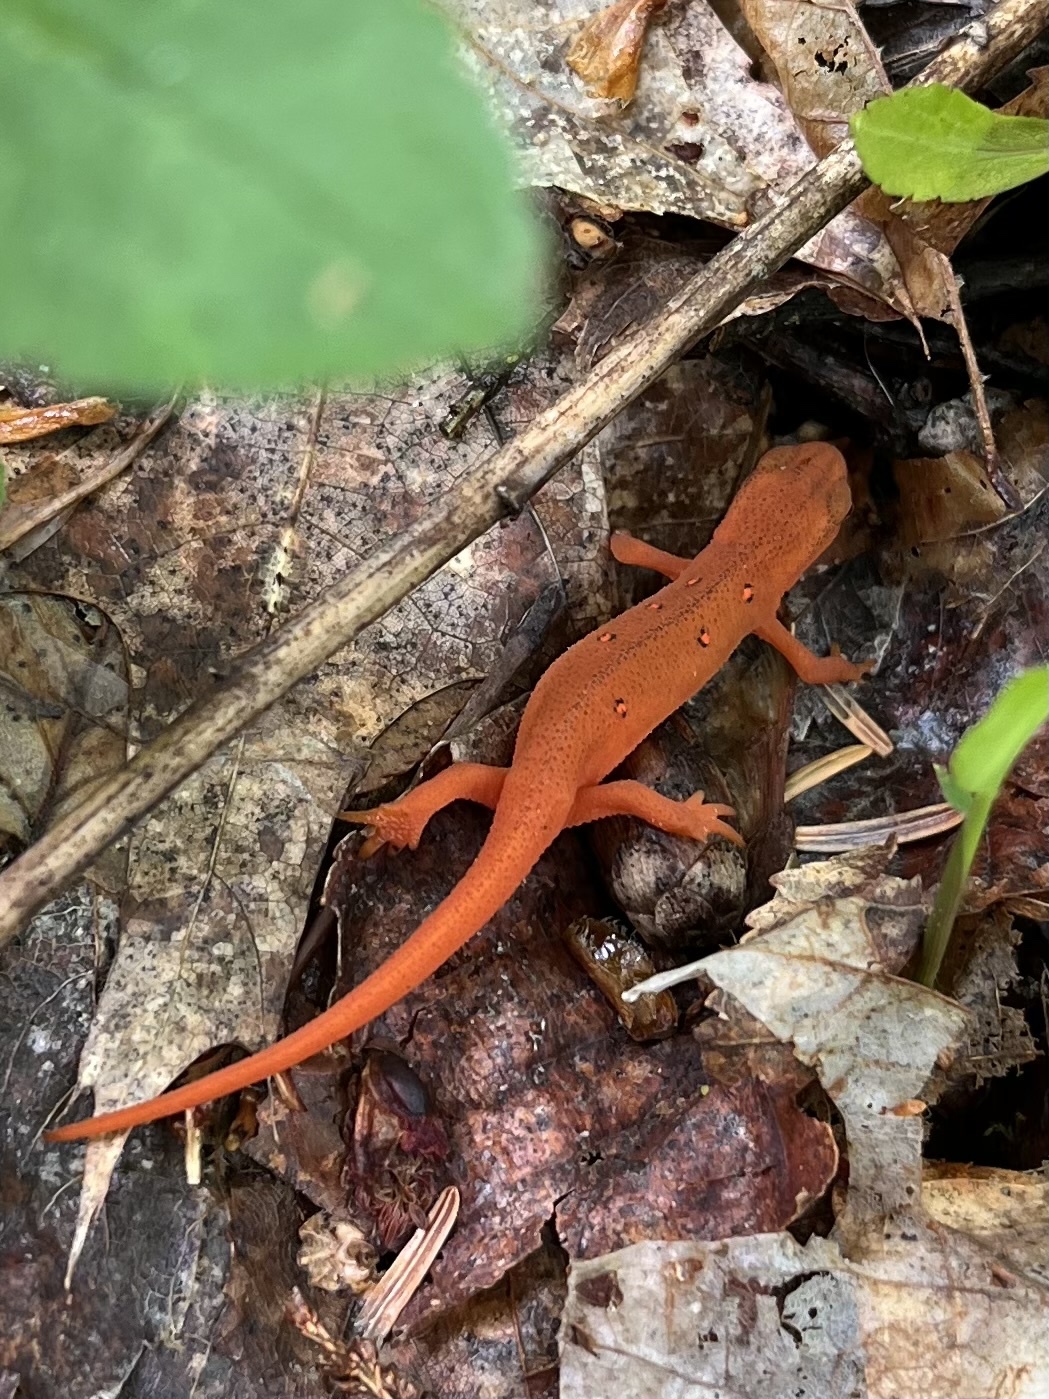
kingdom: Animalia
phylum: Chordata
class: Amphibia
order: Caudata
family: Salamandridae
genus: Notophthalmus
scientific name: Notophthalmus viridescens
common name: Eastern newt
